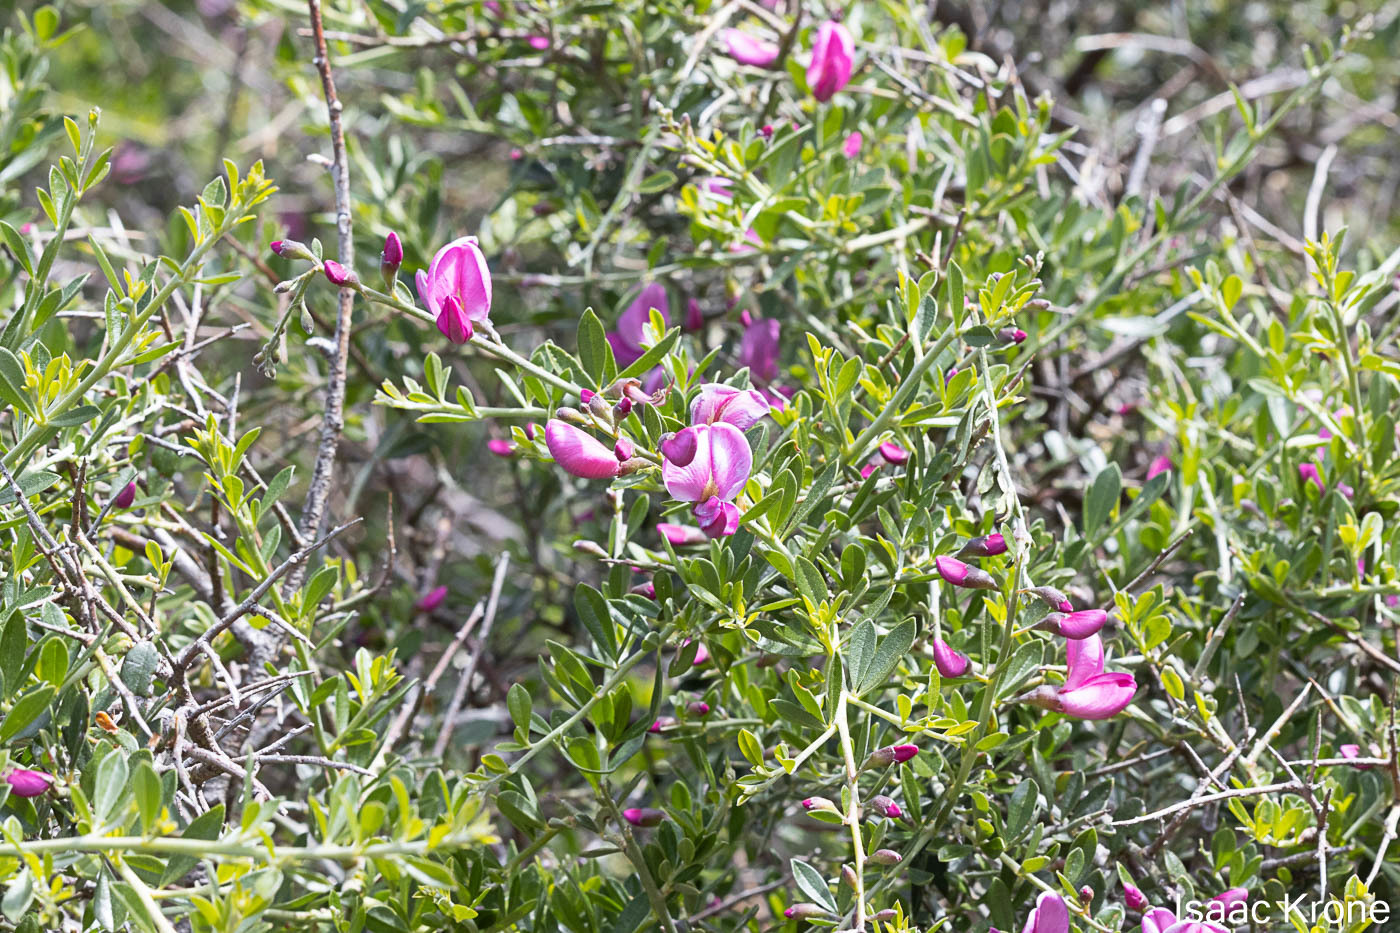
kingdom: Plantae
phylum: Tracheophyta
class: Magnoliopsida
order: Fabales
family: Fabaceae
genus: Pickeringia
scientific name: Pickeringia montana
